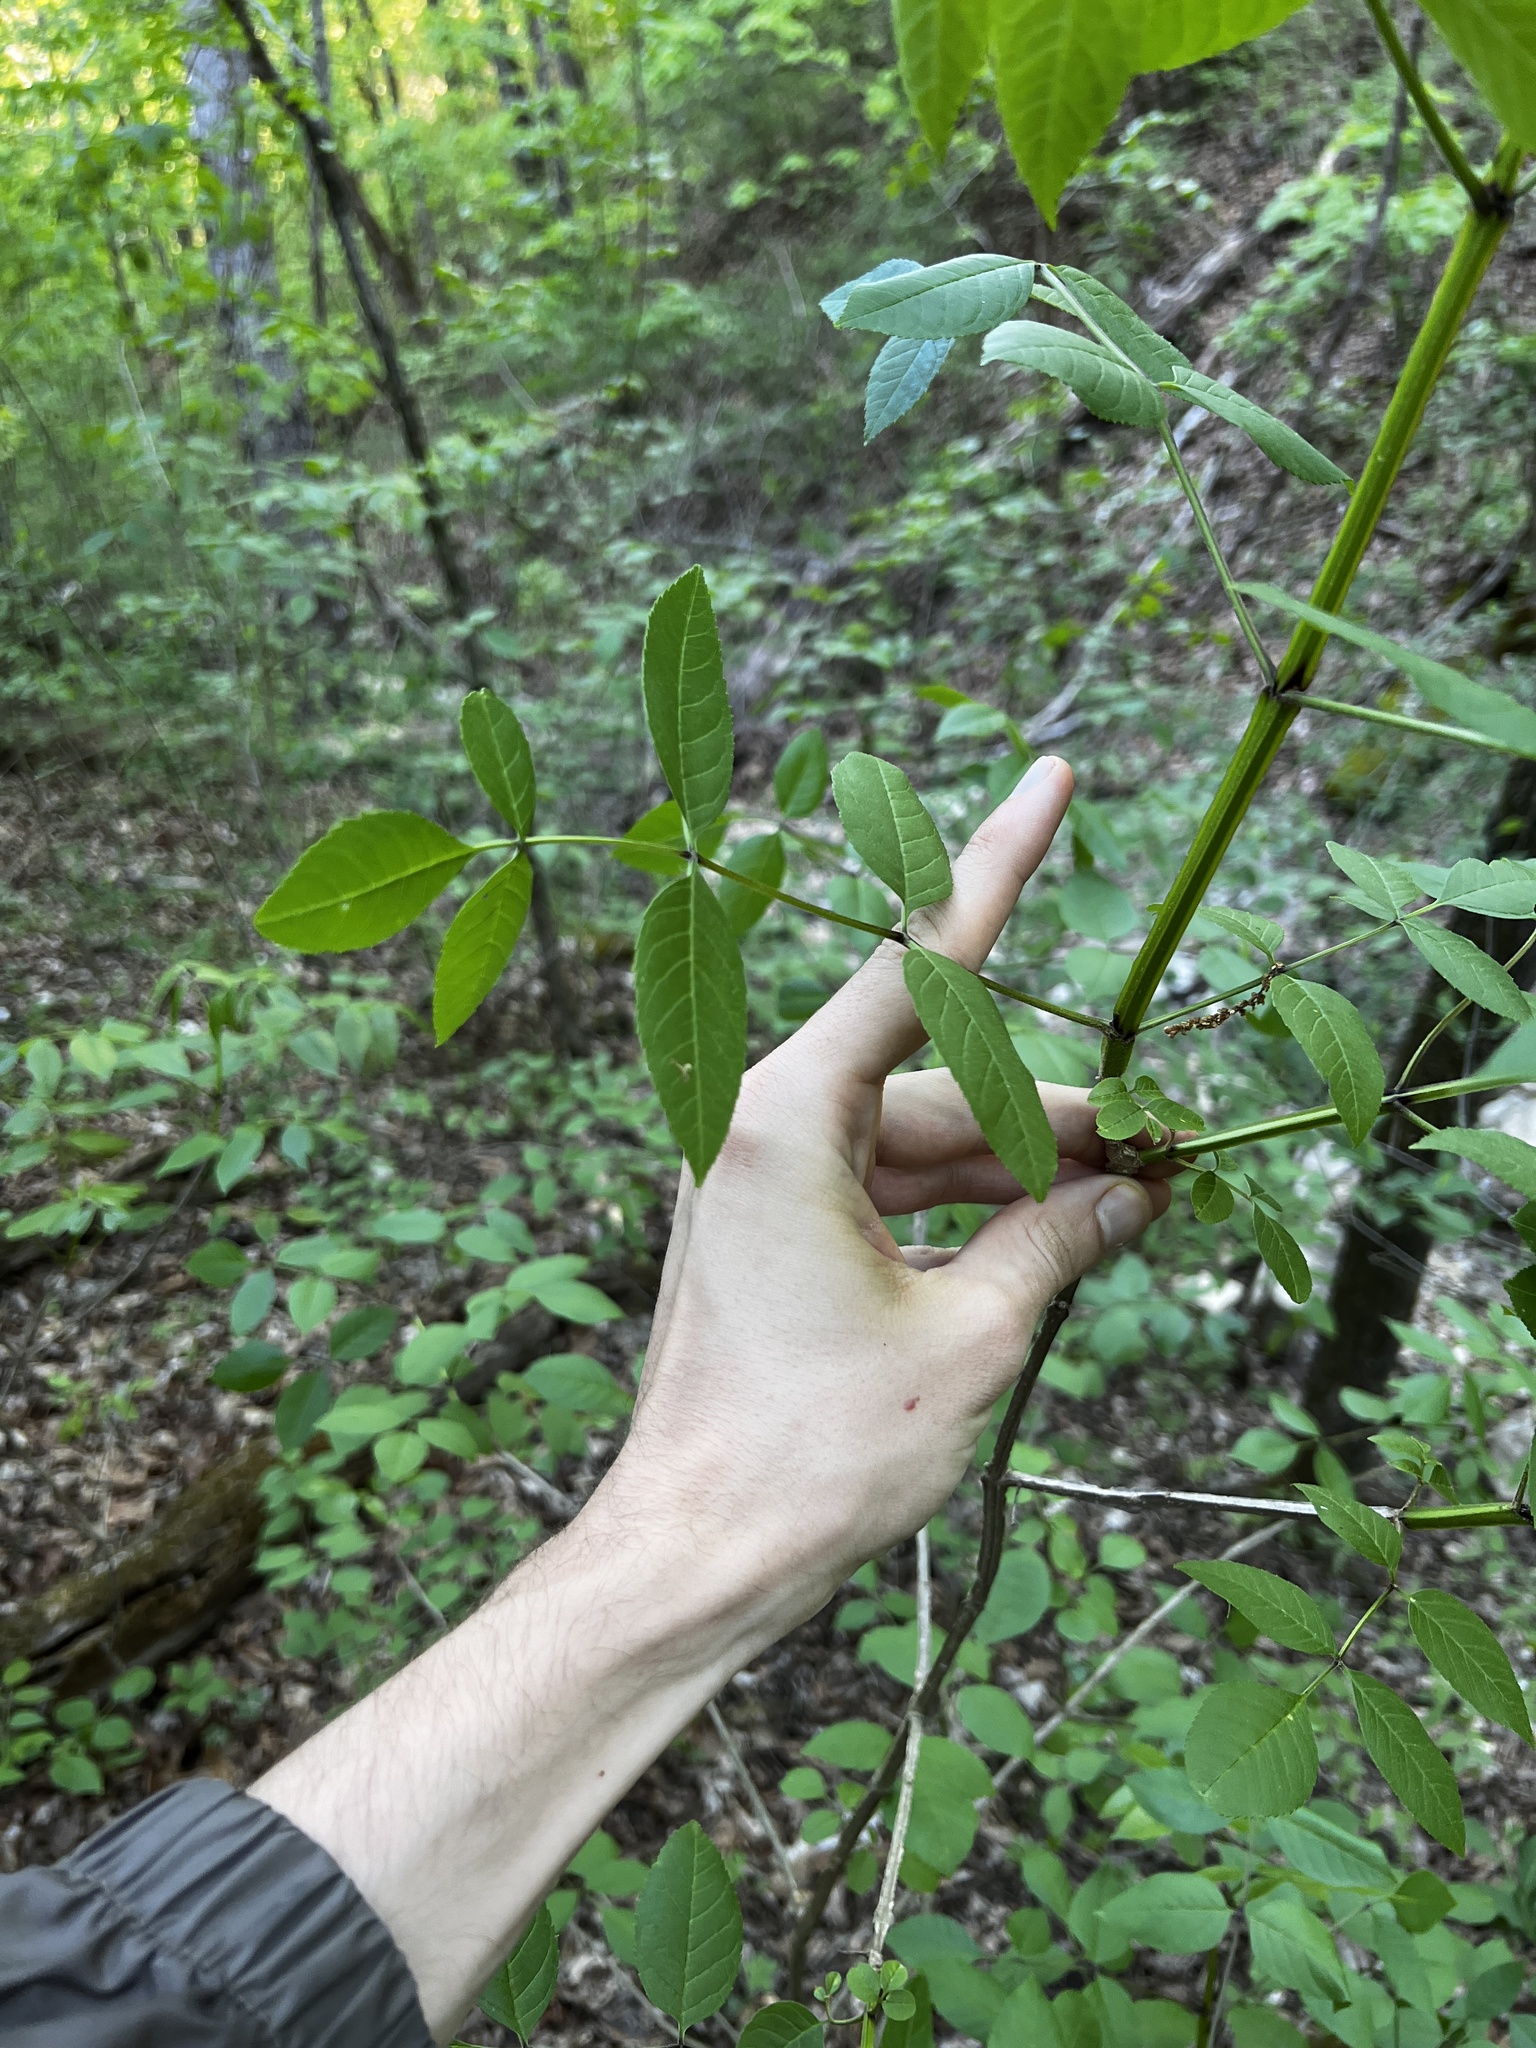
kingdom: Plantae
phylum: Tracheophyta
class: Magnoliopsida
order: Lamiales
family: Oleaceae
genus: Fraxinus
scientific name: Fraxinus quadrangulata
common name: Blue ash
